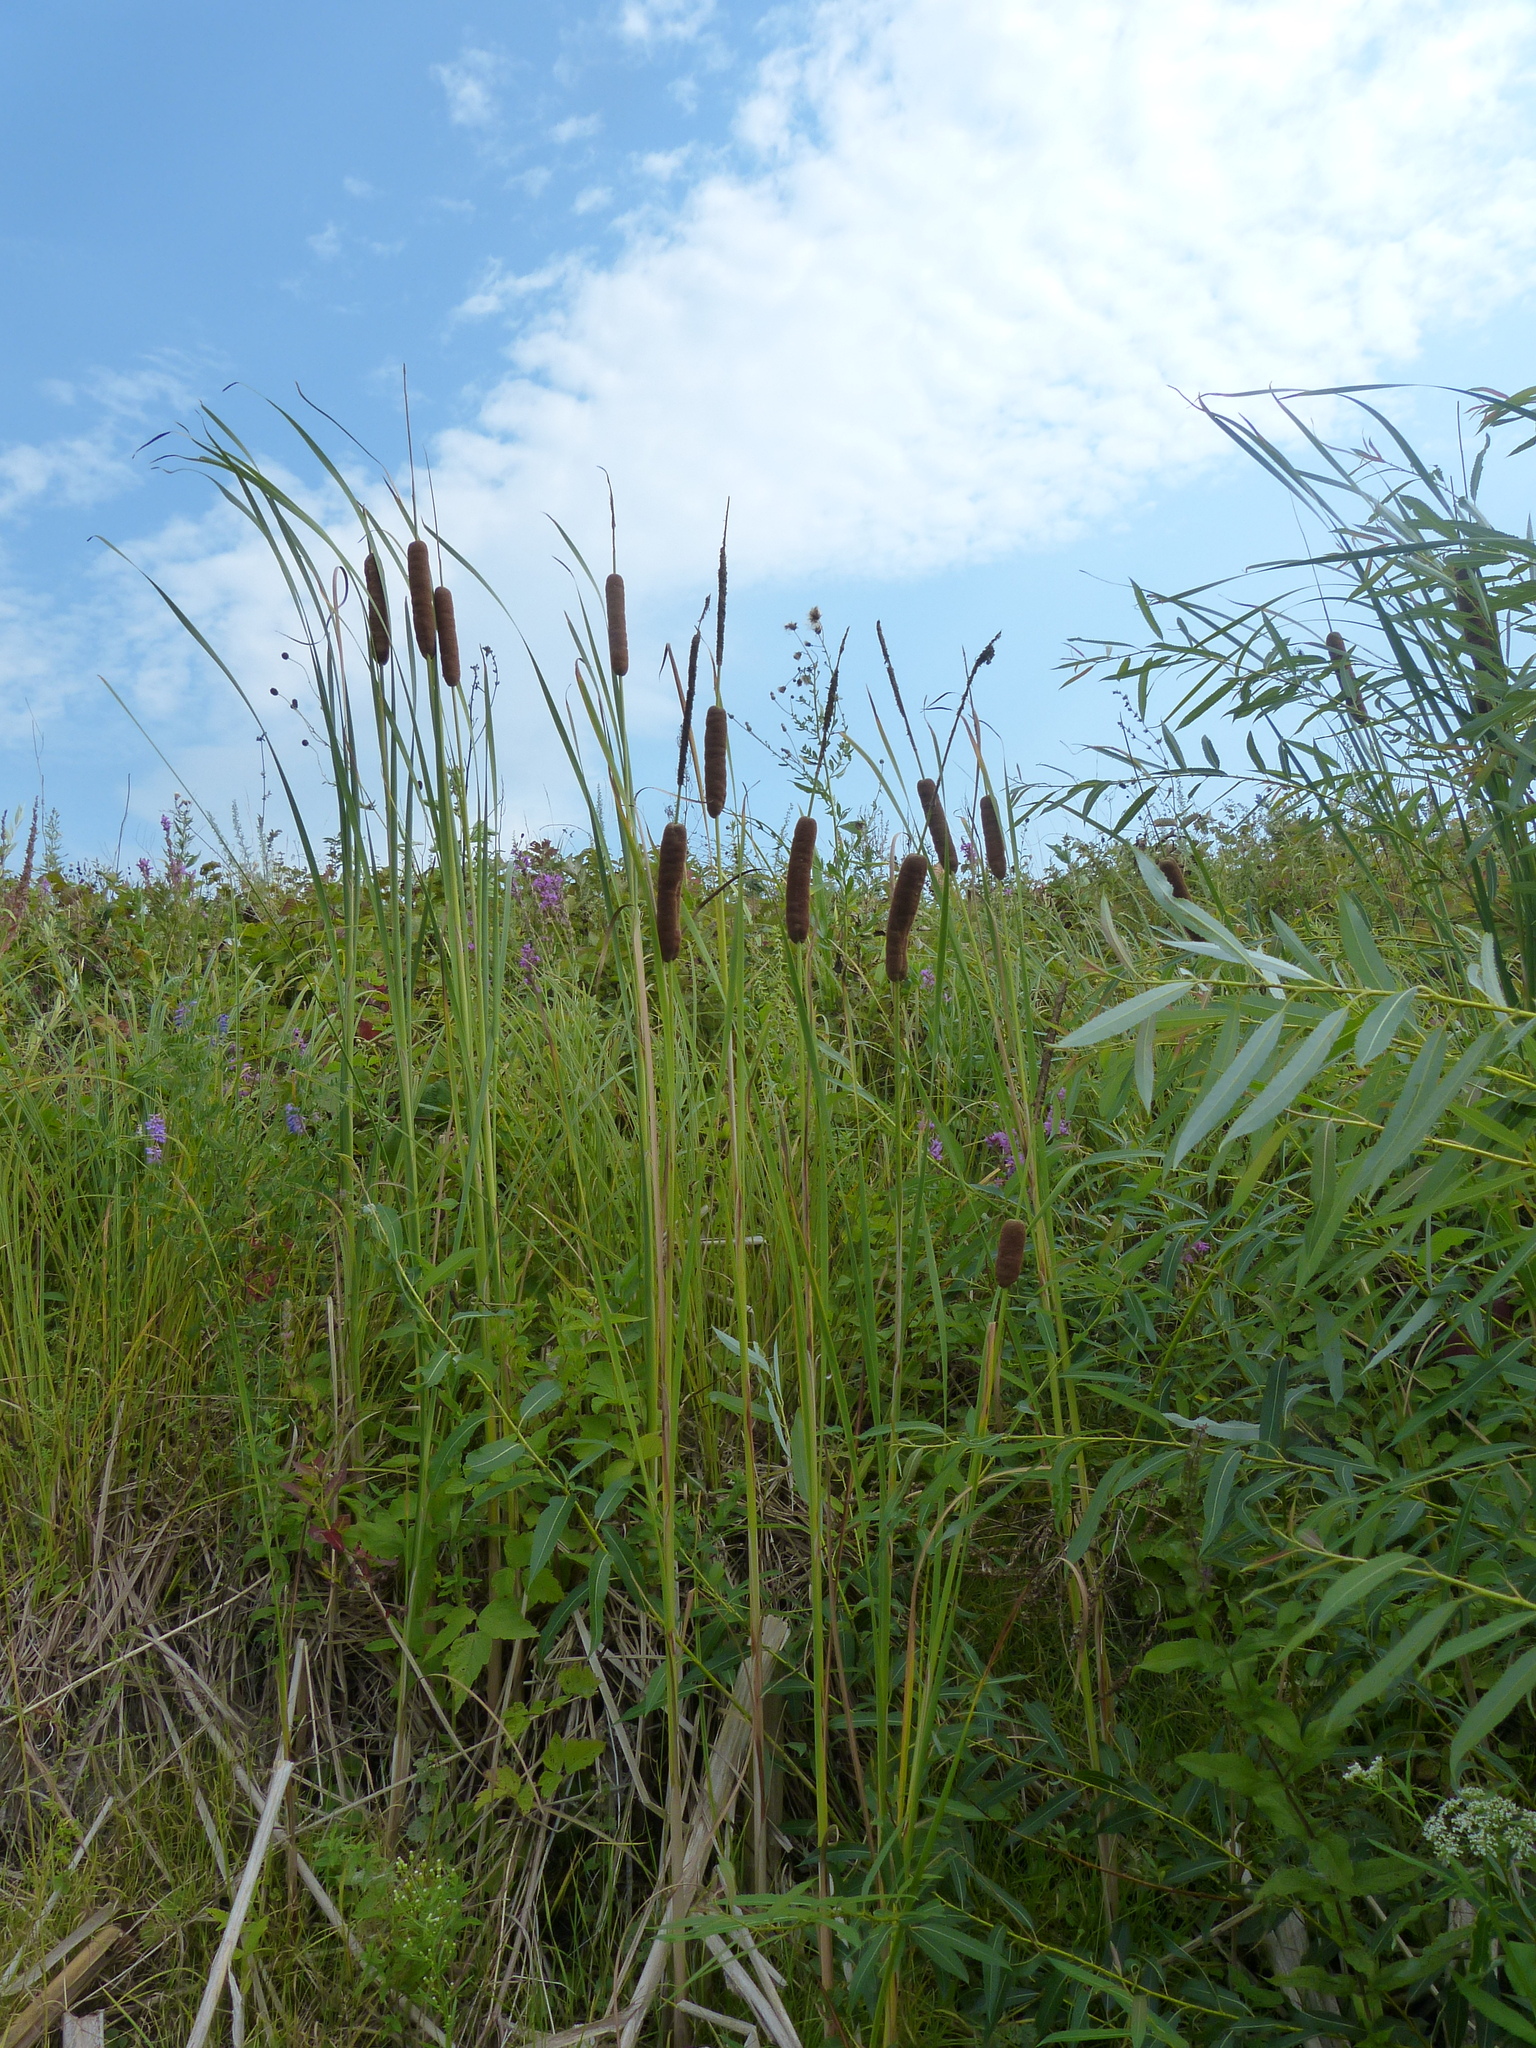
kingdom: Plantae
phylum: Tracheophyta
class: Liliopsida
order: Poales
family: Typhaceae
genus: Typha
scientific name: Typha angustifolia
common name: Lesser bulrush
